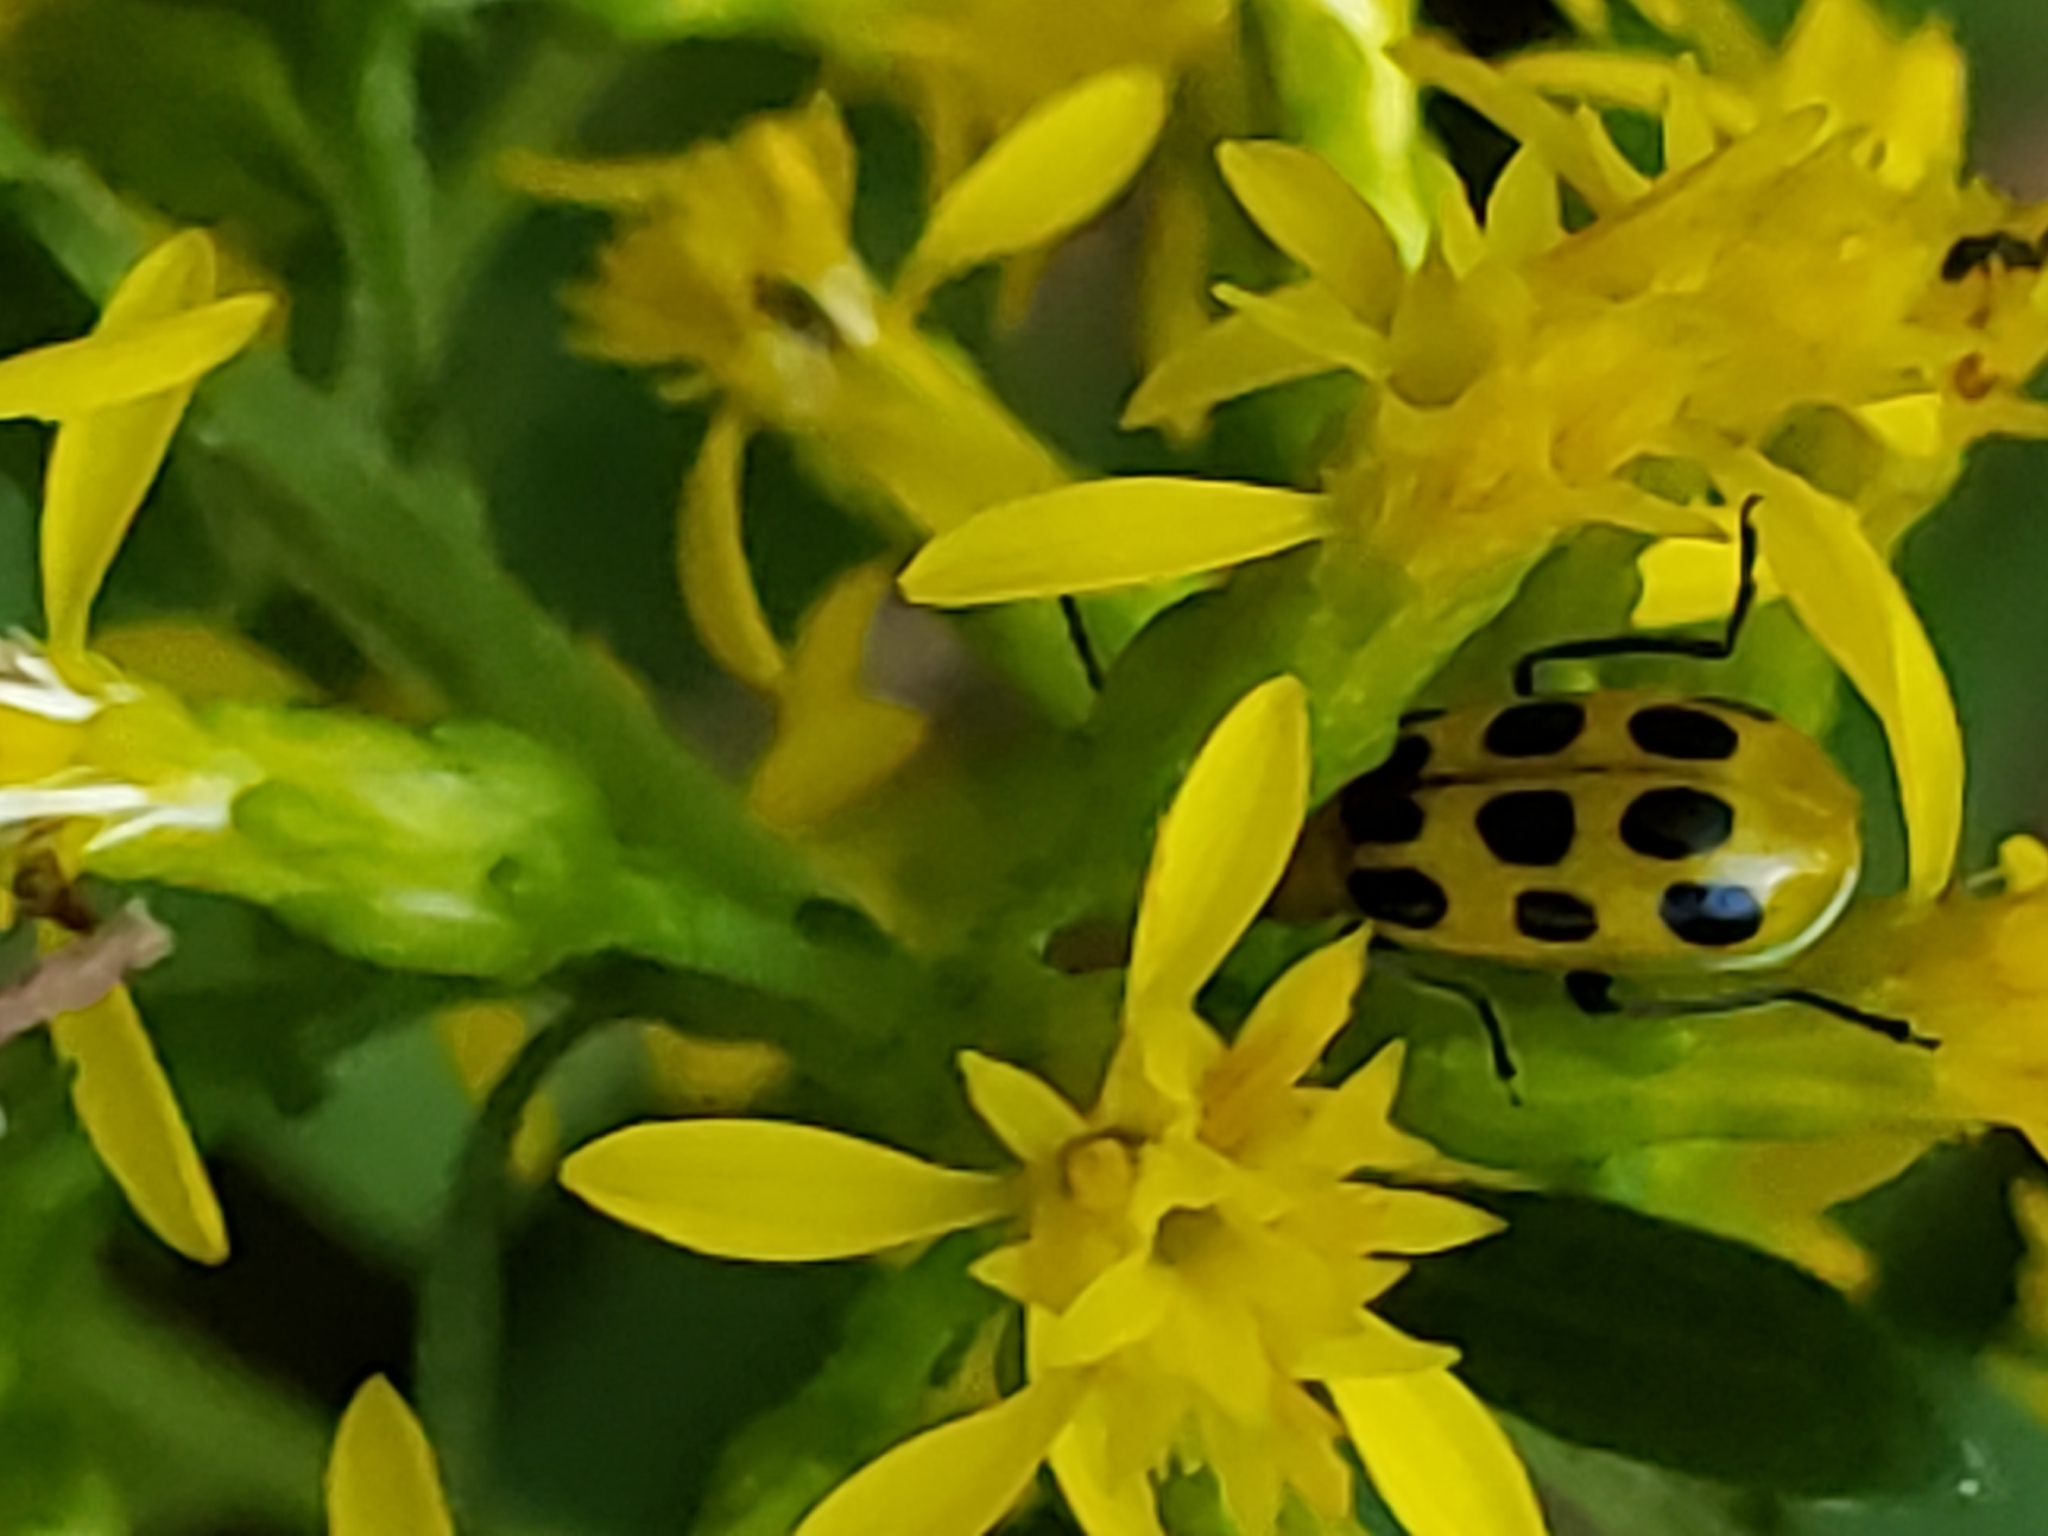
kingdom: Animalia
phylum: Arthropoda
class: Insecta
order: Coleoptera
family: Chrysomelidae
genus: Diabrotica
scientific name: Diabrotica undecimpunctata
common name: Spotted cucumber beetle
